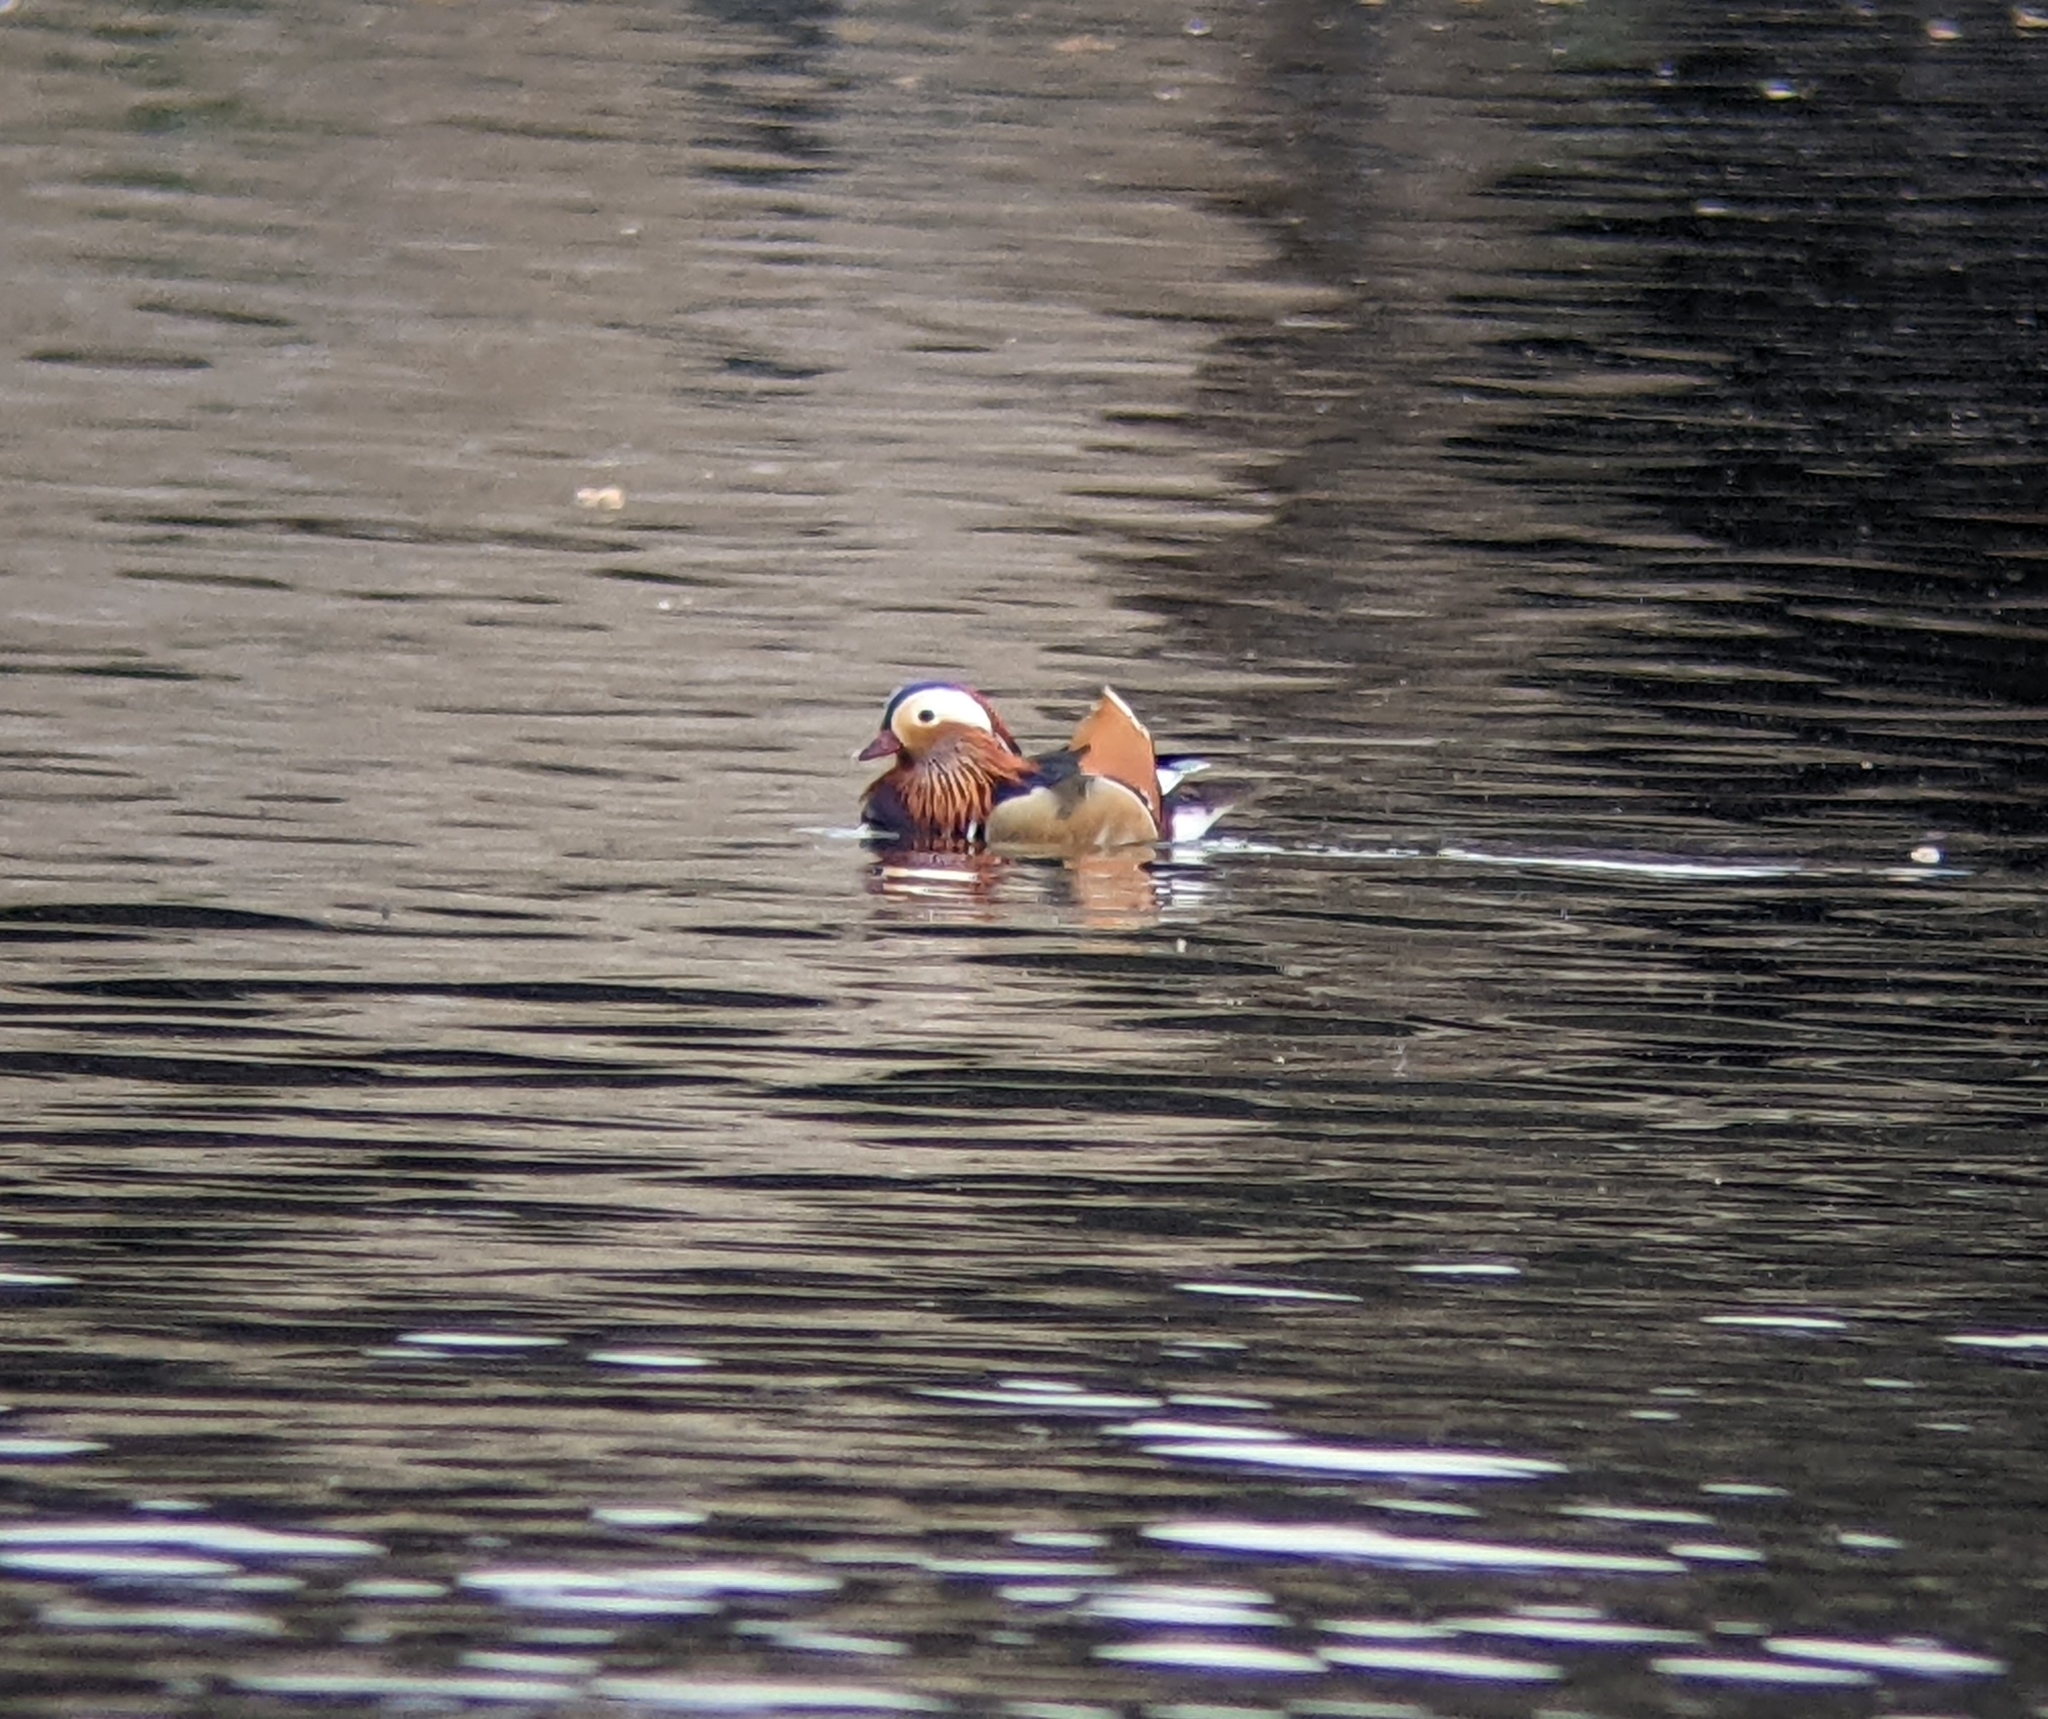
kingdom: Animalia
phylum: Chordata
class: Aves
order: Anseriformes
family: Anatidae
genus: Aix
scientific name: Aix galericulata
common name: Mandarin duck
